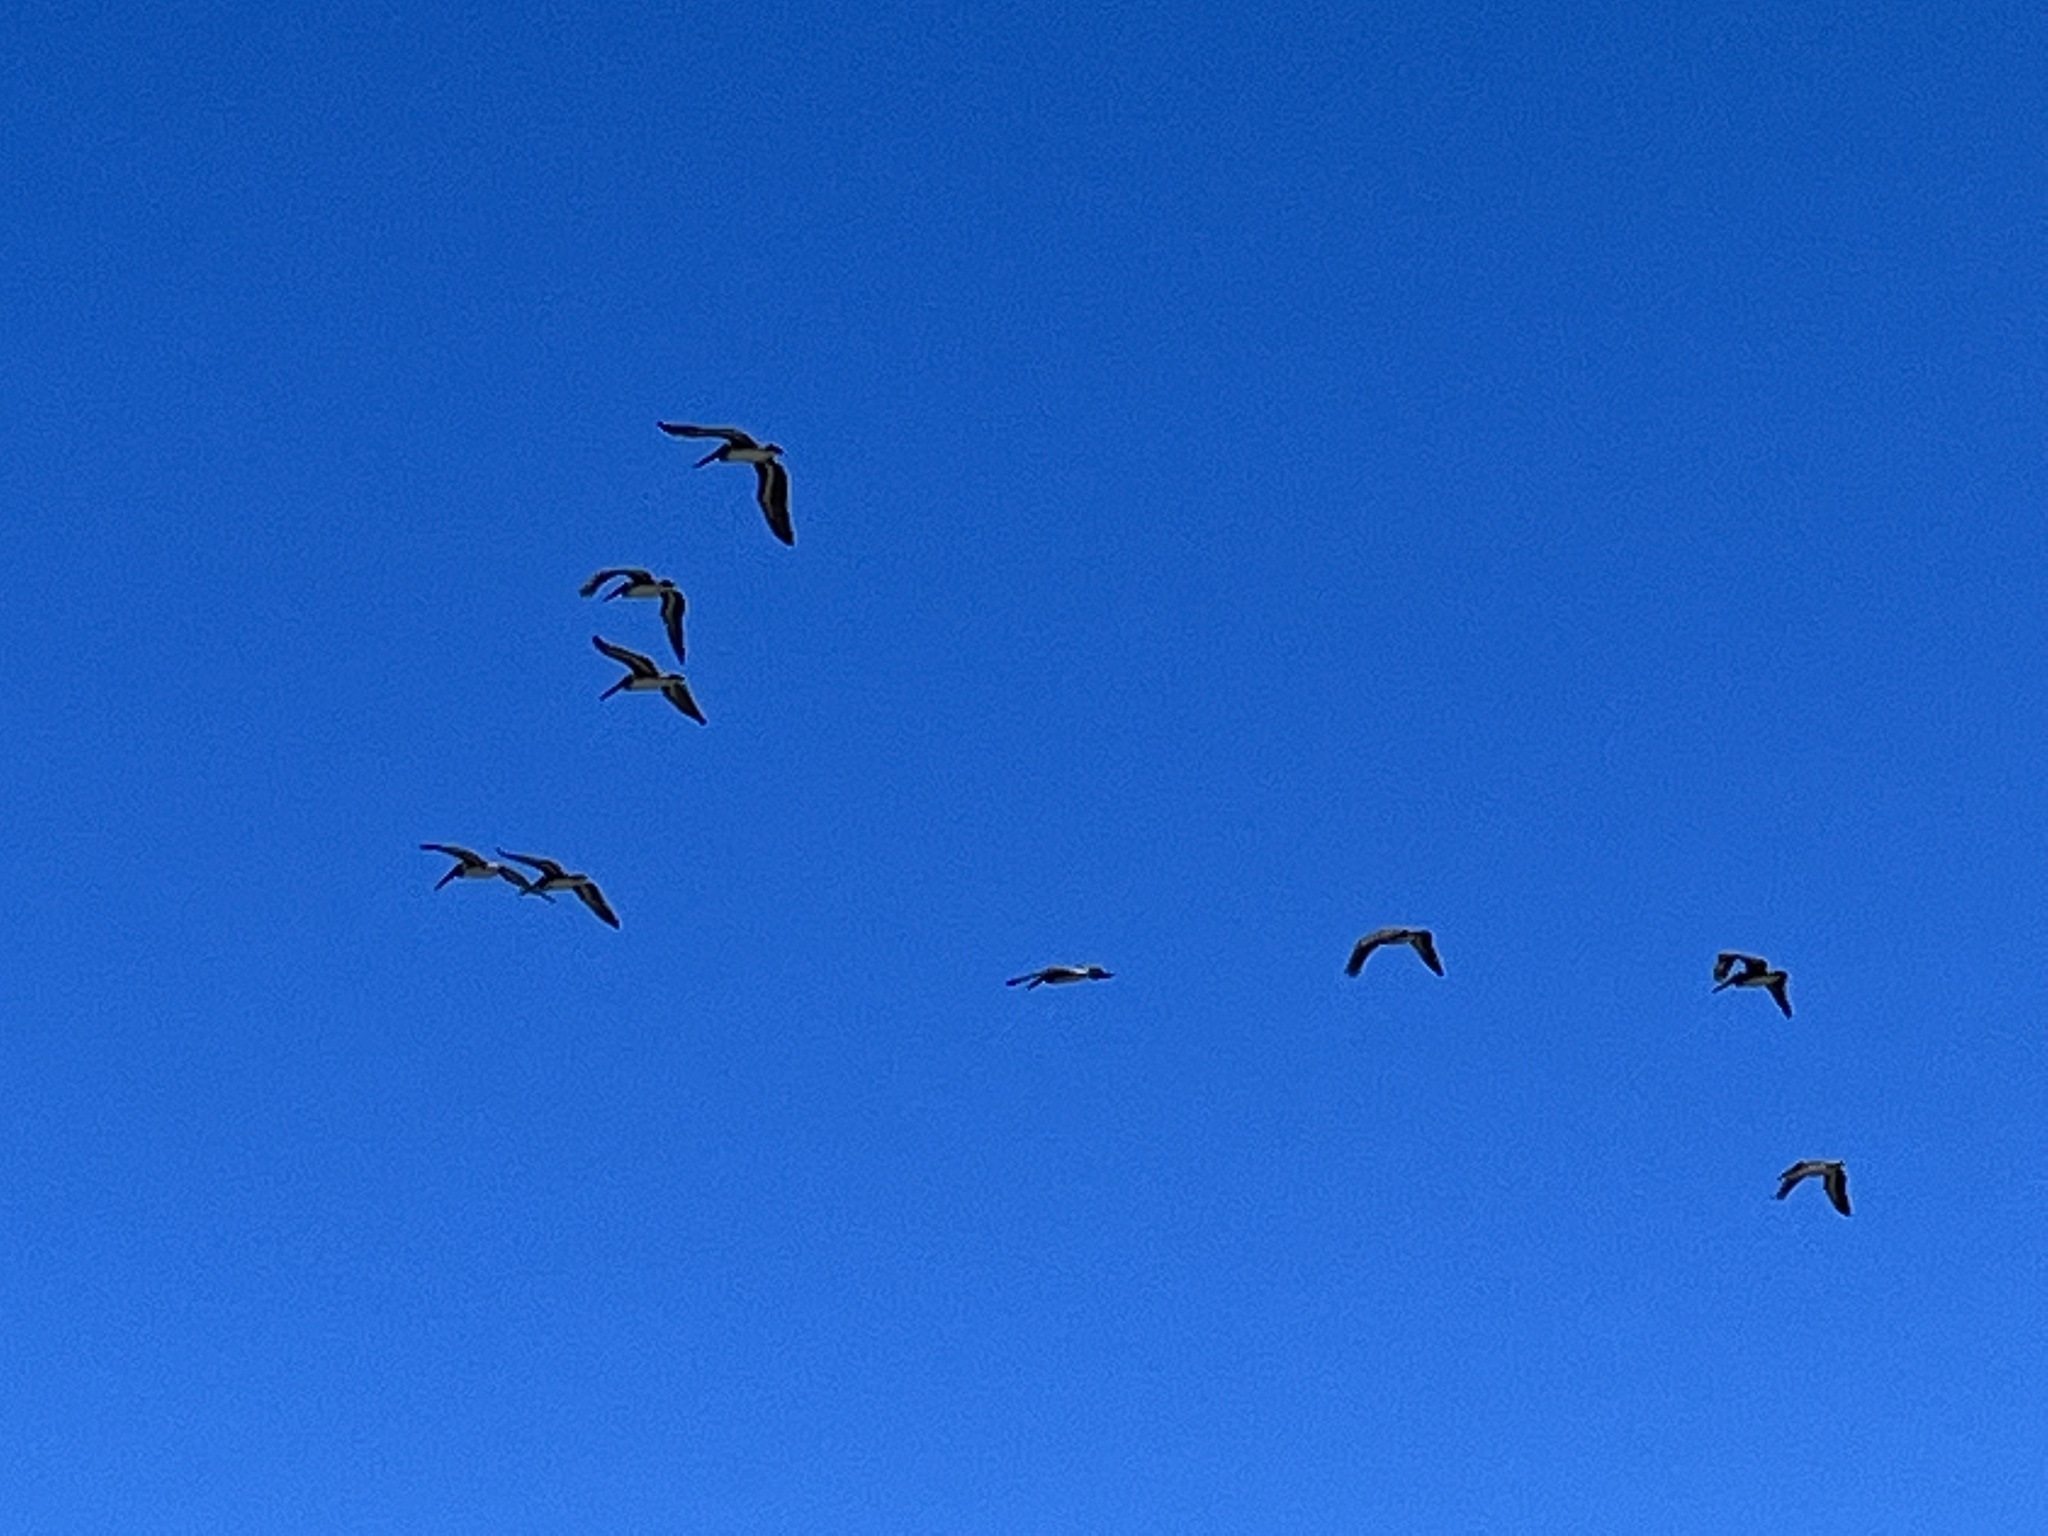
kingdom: Animalia
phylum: Chordata
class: Aves
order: Pelecaniformes
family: Pelecanidae
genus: Pelecanus
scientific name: Pelecanus occidentalis
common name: Brown pelican
